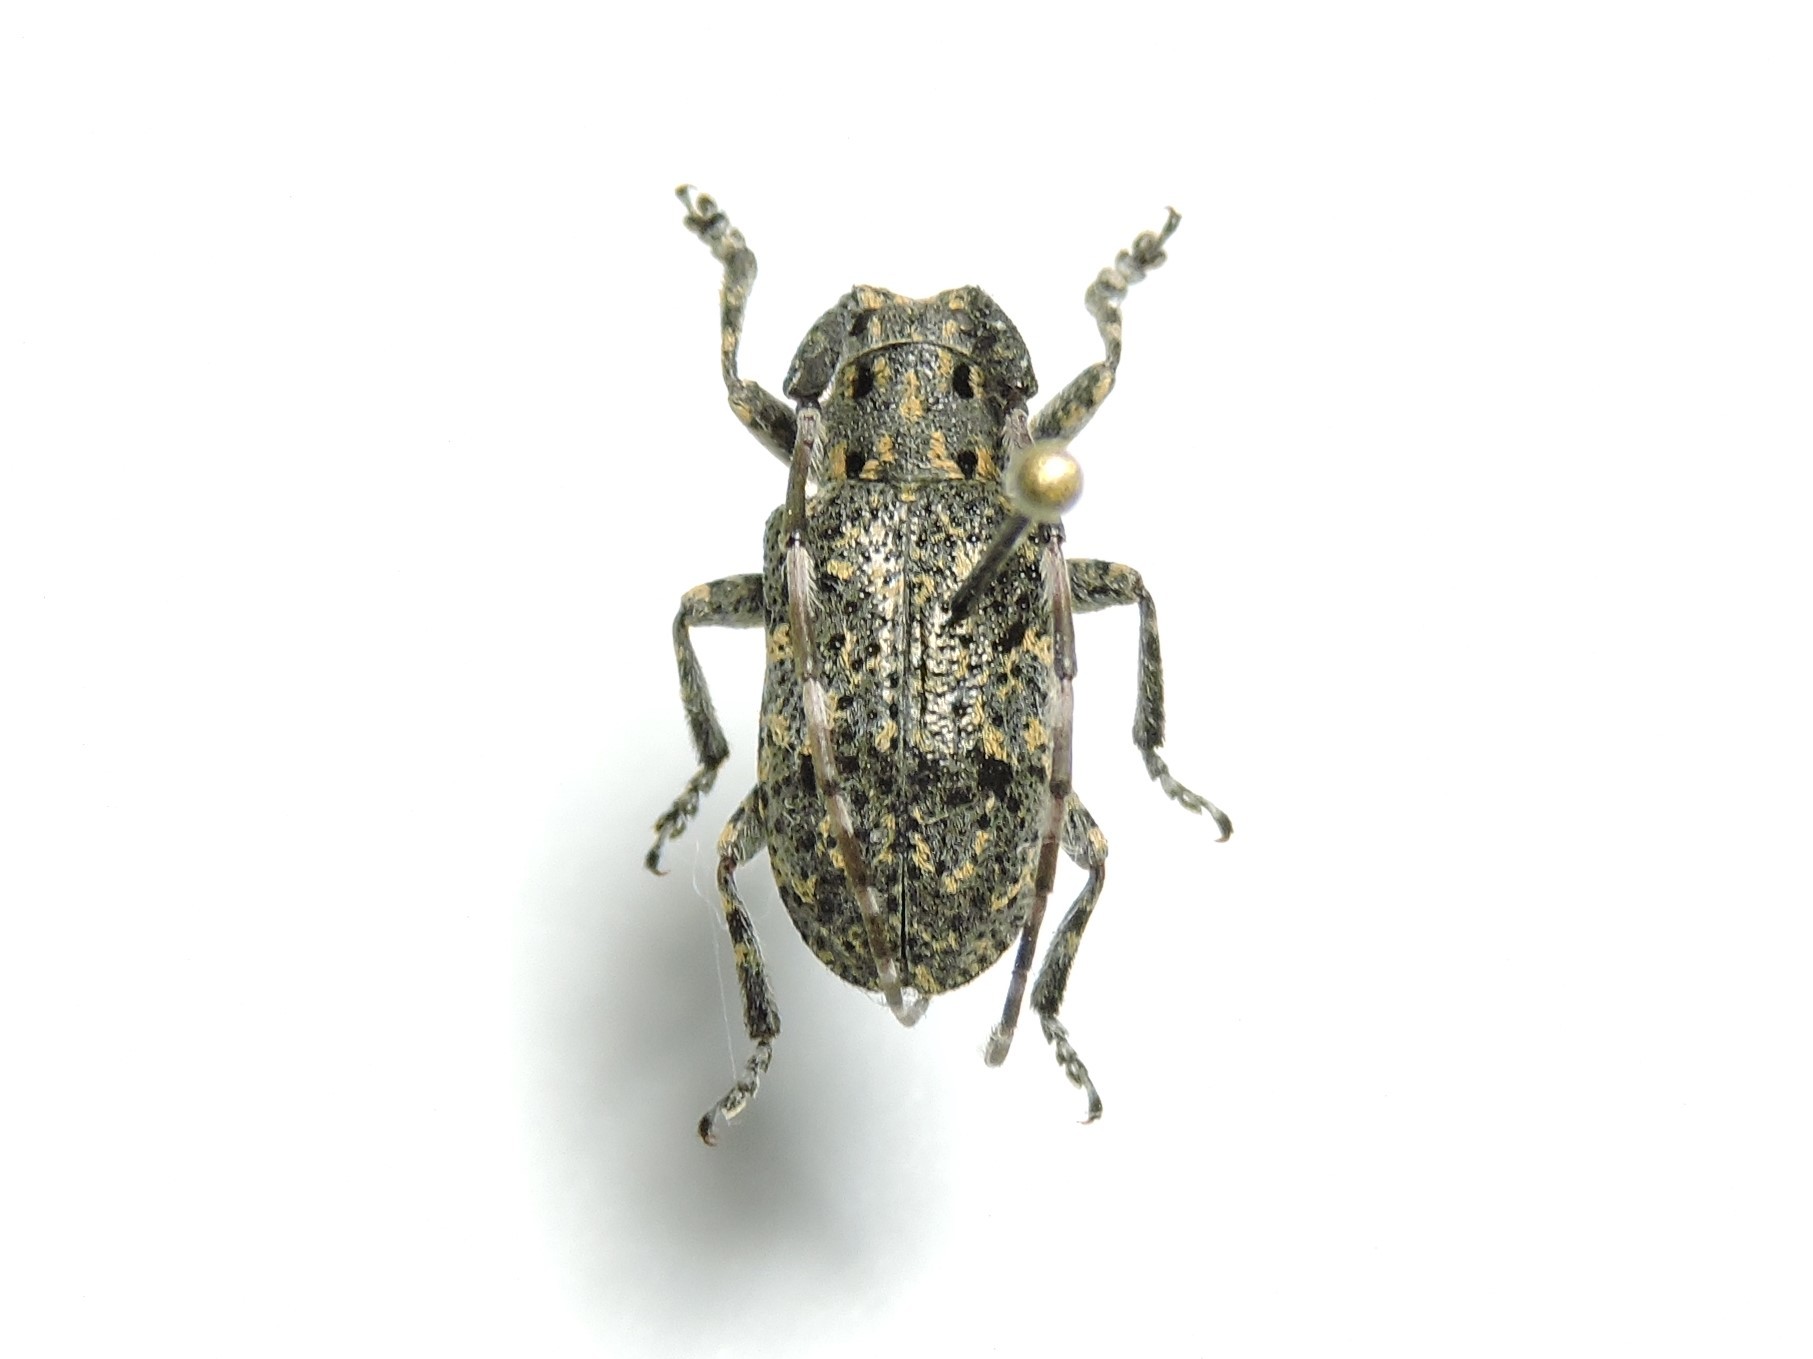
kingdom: Animalia
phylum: Arthropoda
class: Insecta
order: Coleoptera
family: Cerambycidae
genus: Mesosa
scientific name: Mesosa myops
